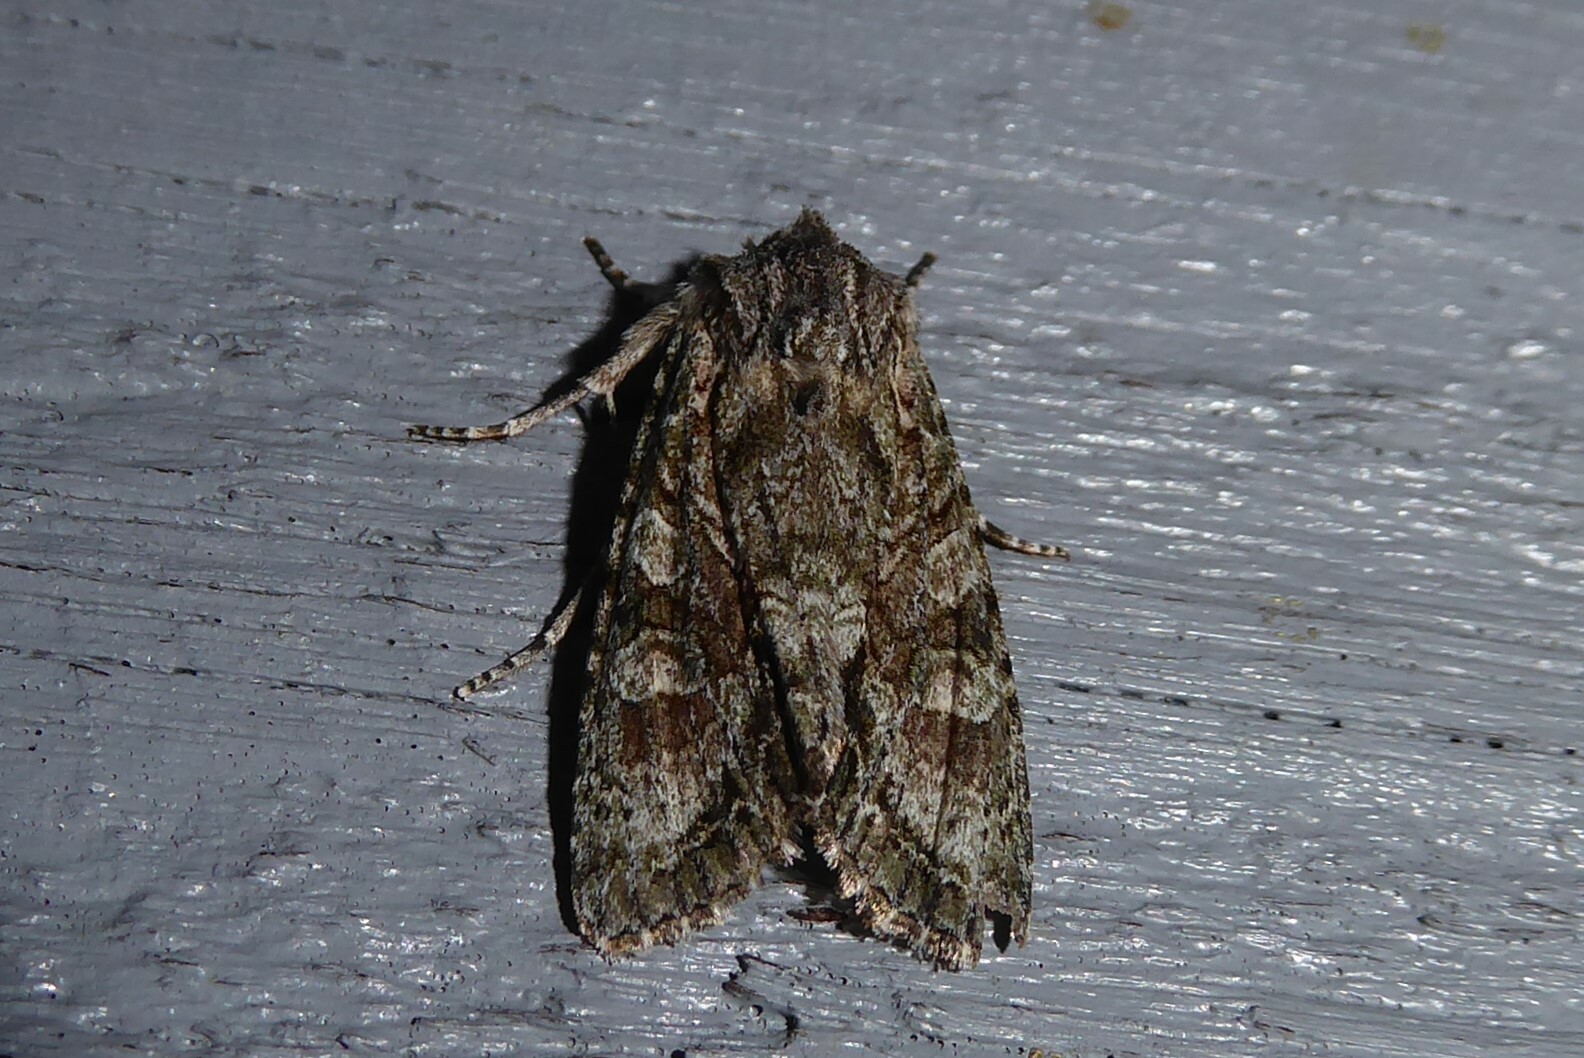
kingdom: Animalia
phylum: Arthropoda
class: Insecta
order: Lepidoptera
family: Noctuidae
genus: Ichneutica
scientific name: Ichneutica mutans
